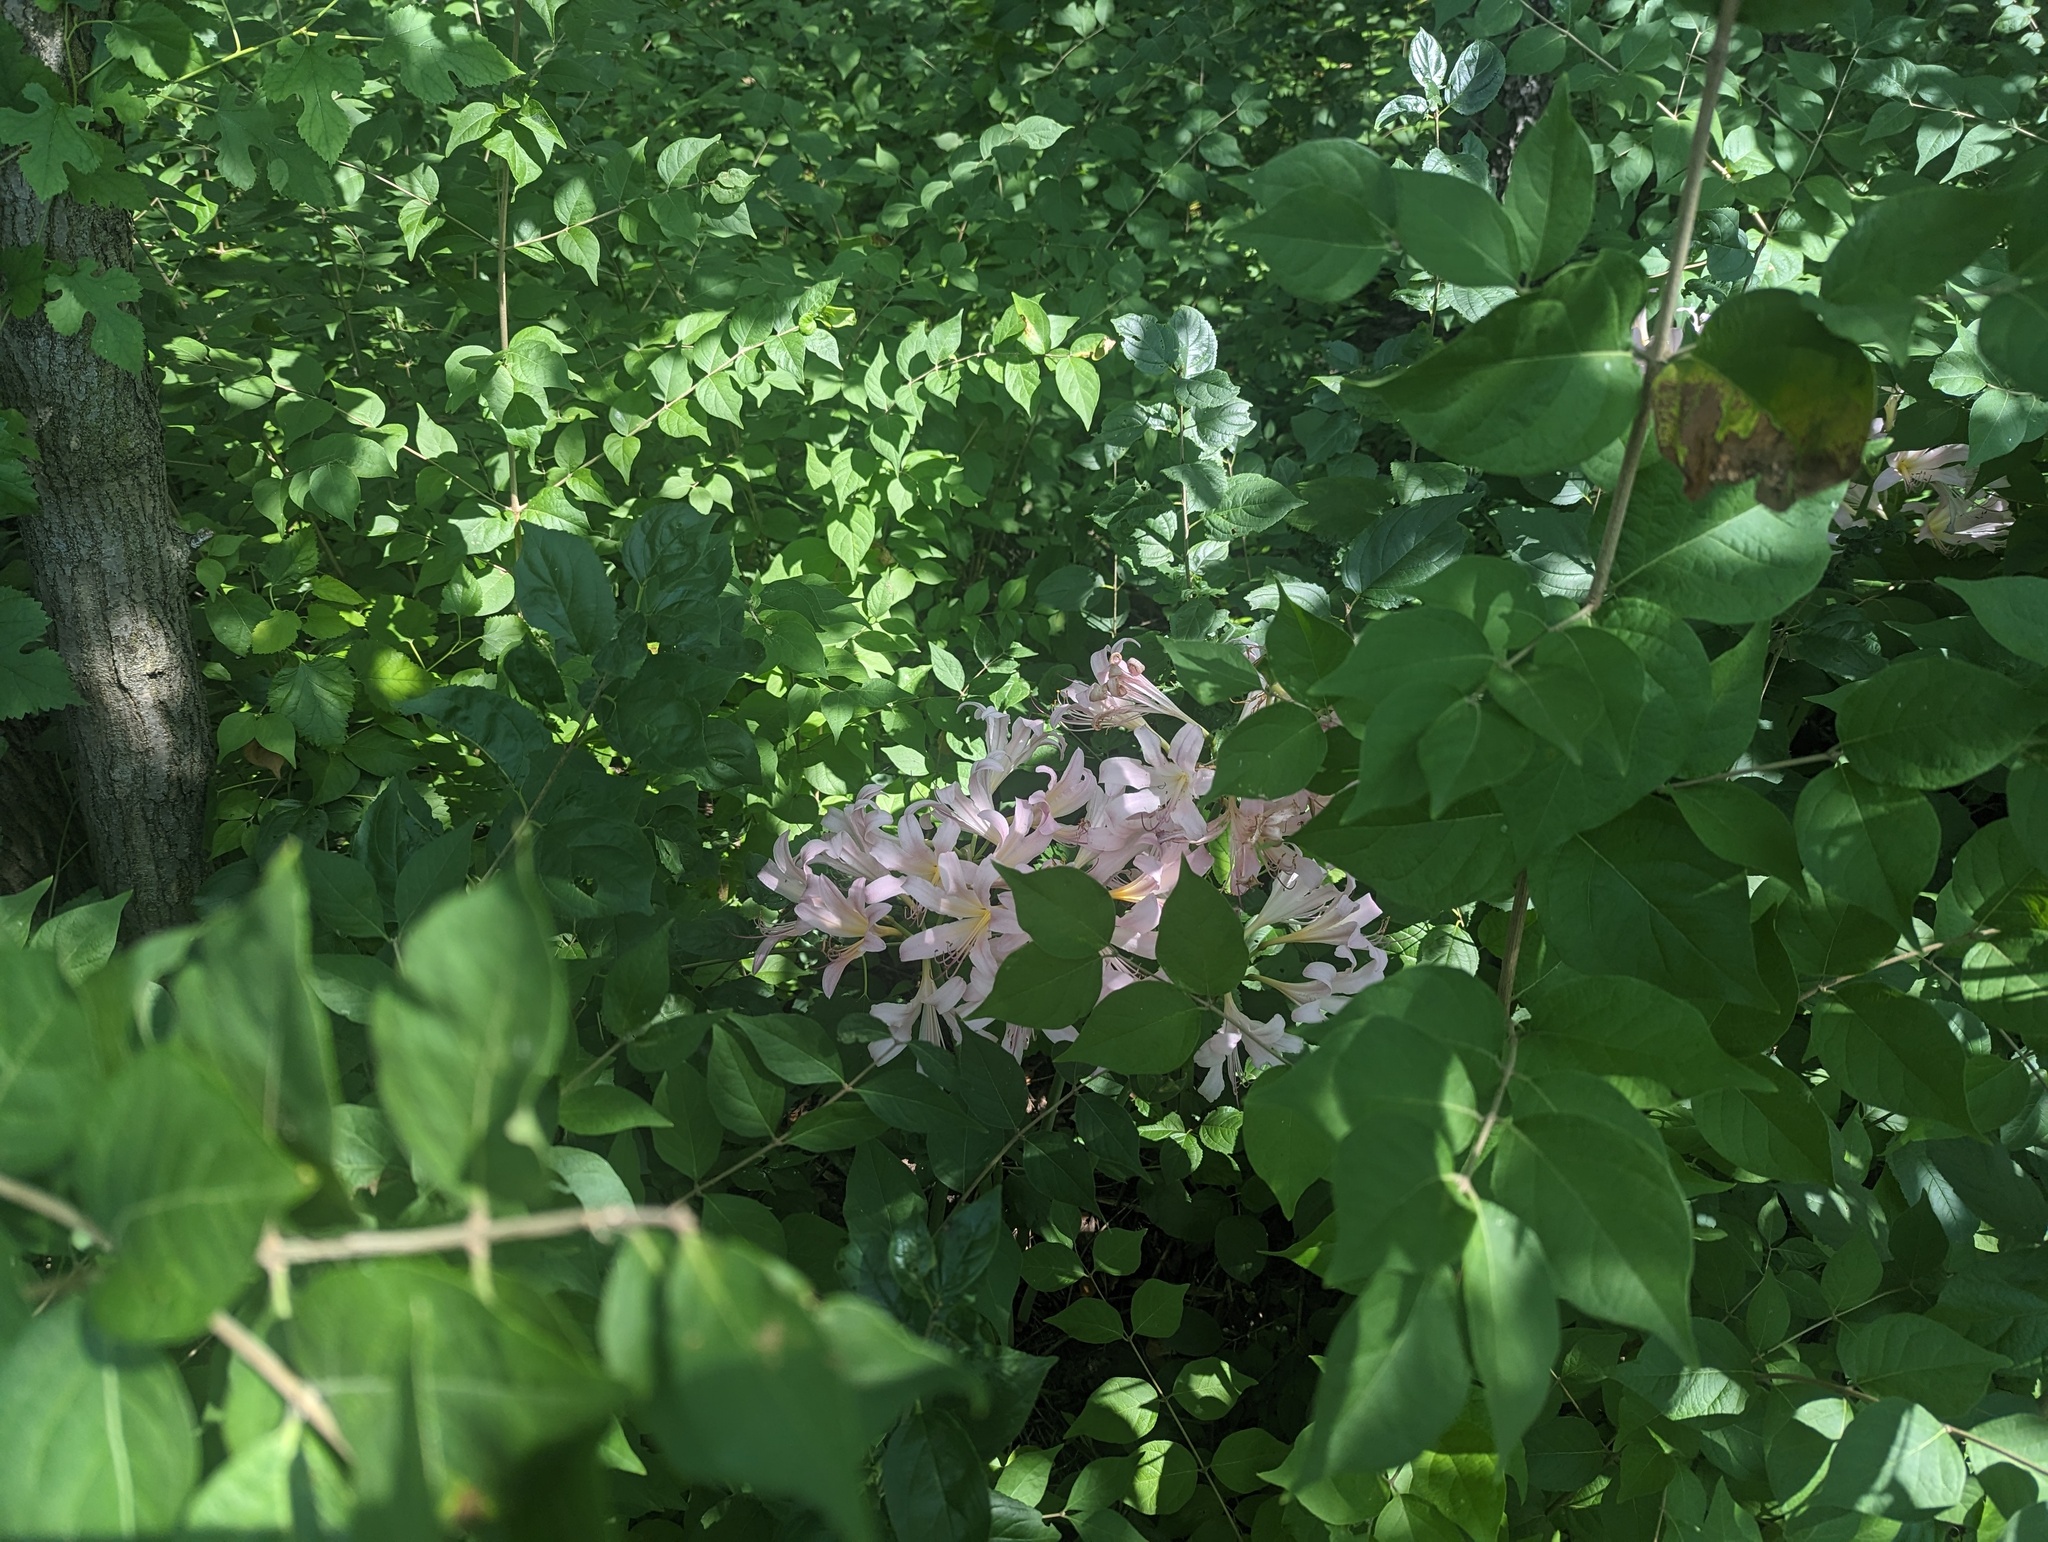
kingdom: Plantae
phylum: Tracheophyta
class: Liliopsida
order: Asparagales
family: Amaryllidaceae
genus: Lycoris
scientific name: Lycoris squamigera
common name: Magic-lily
